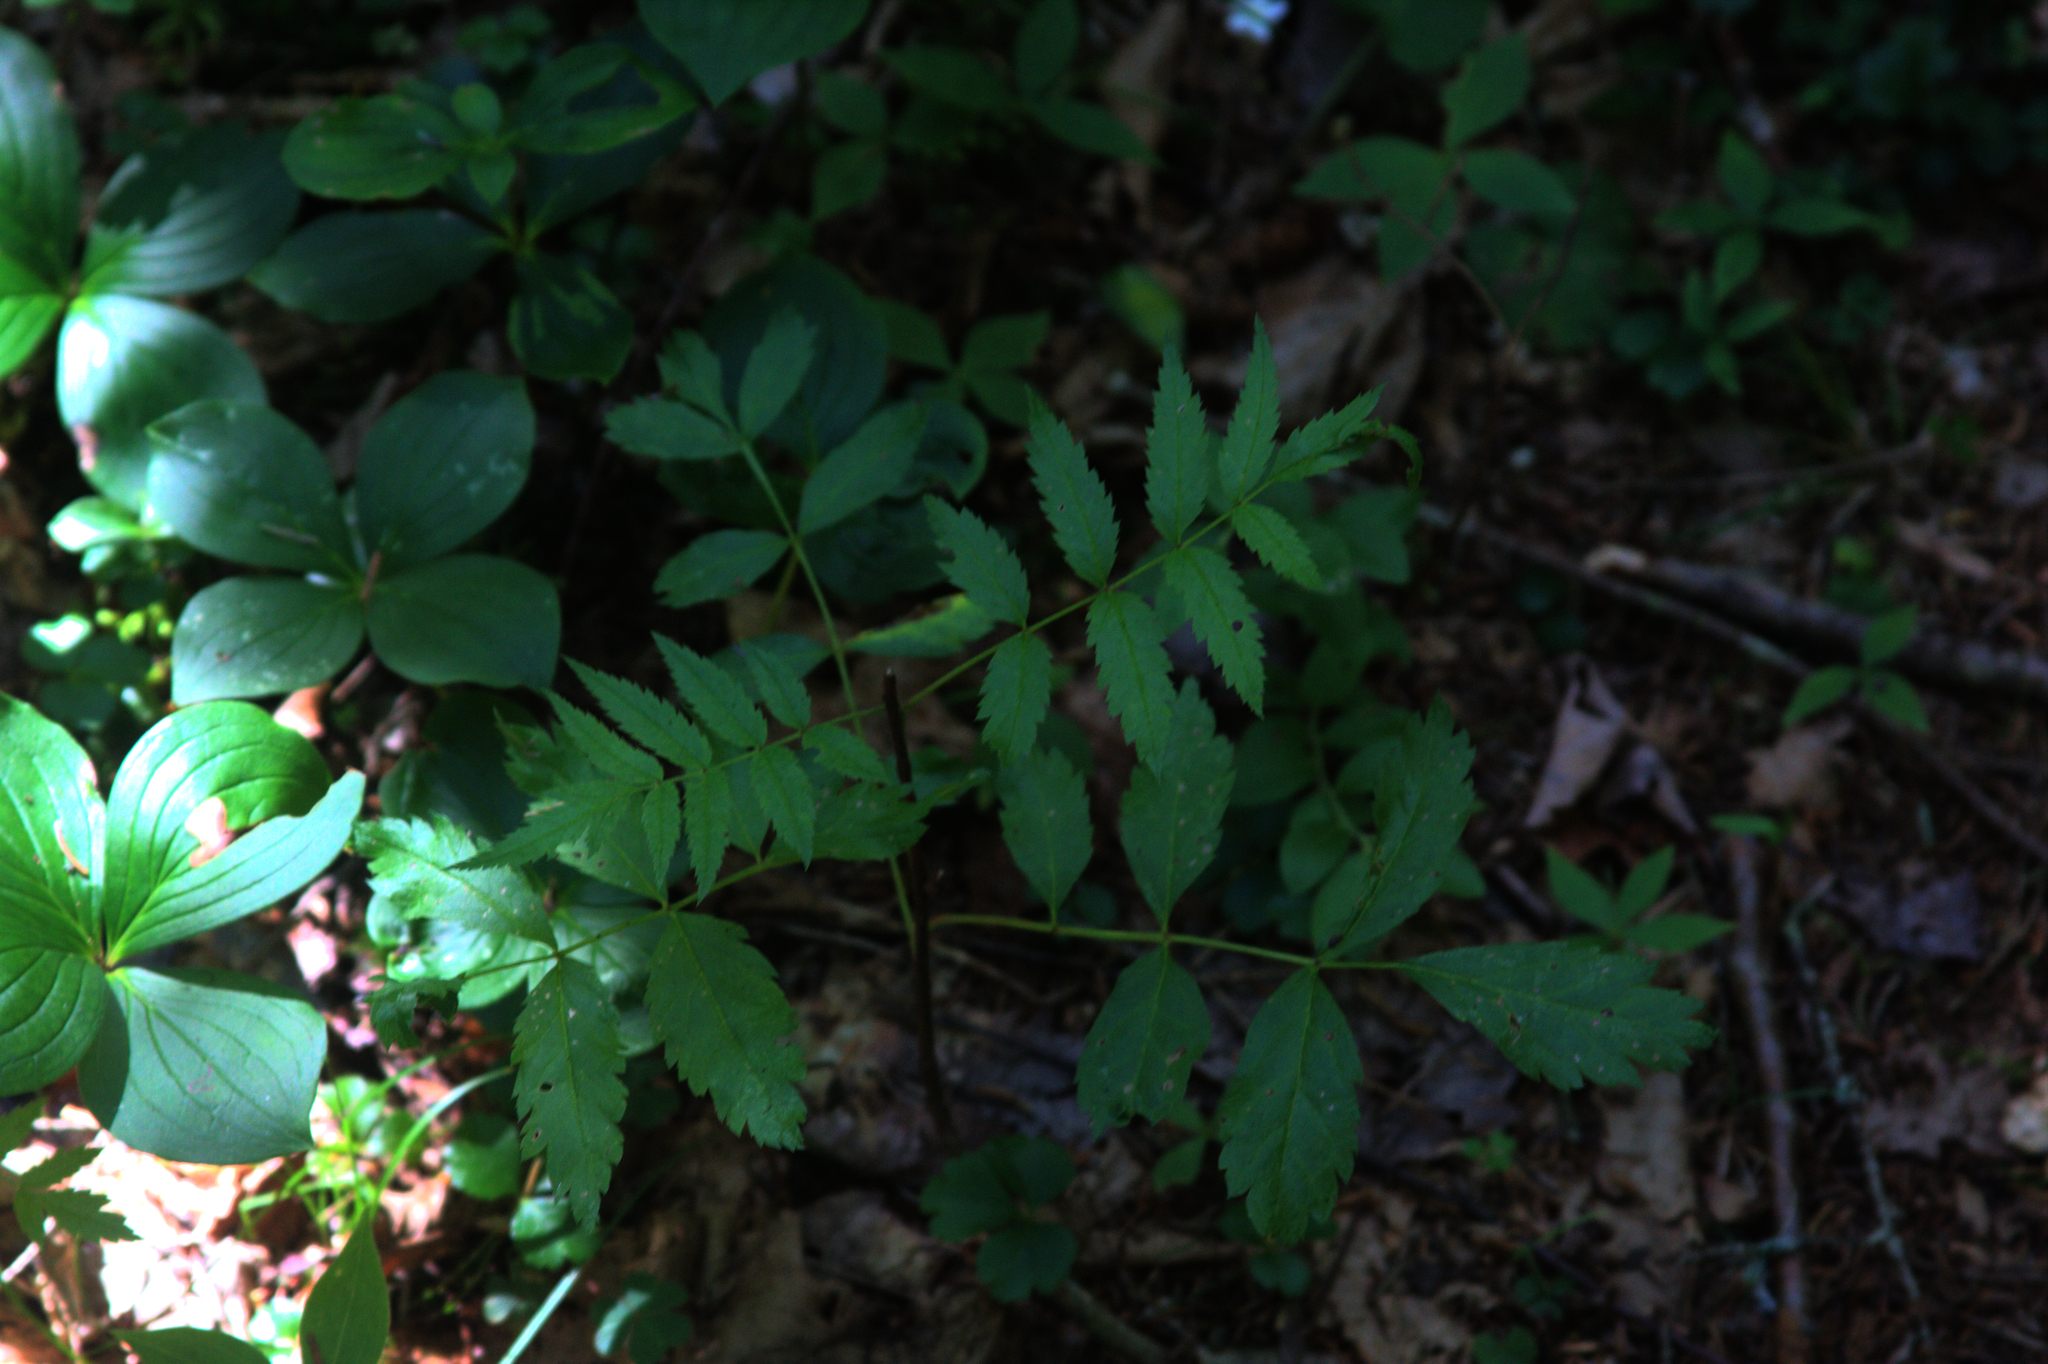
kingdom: Plantae
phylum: Tracheophyta
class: Magnoliopsida
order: Cornales
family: Cornaceae
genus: Cornus
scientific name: Cornus canadensis
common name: Creeping dogwood
